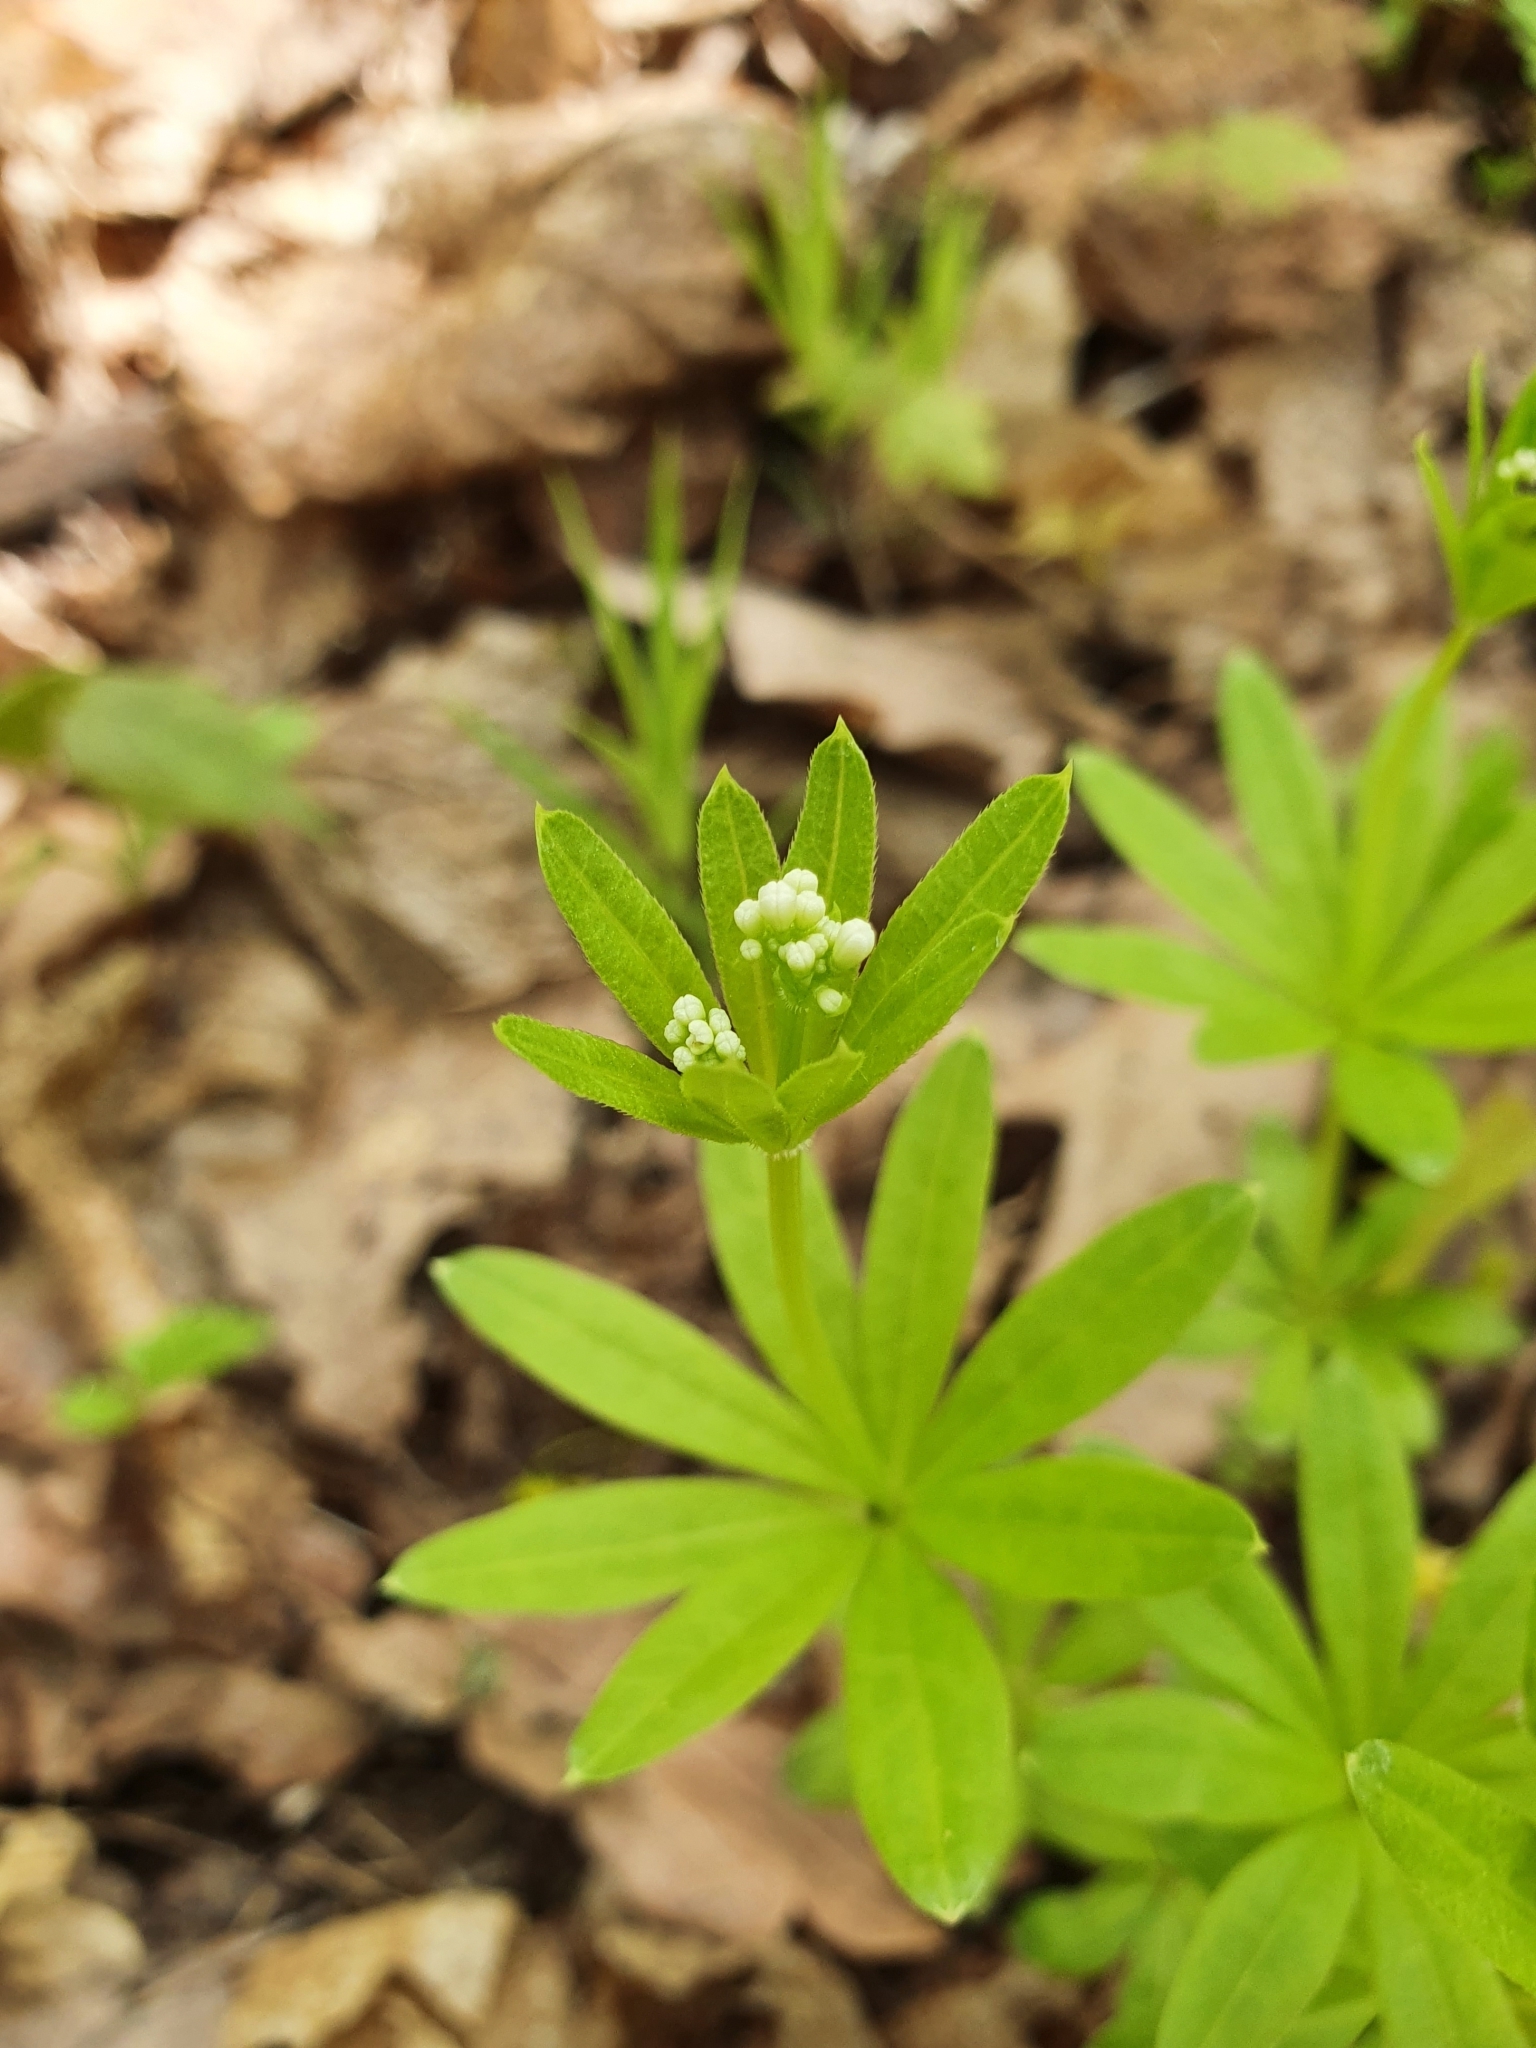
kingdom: Plantae
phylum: Tracheophyta
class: Magnoliopsida
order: Gentianales
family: Rubiaceae
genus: Galium
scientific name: Galium odoratum
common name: Sweet woodruff
